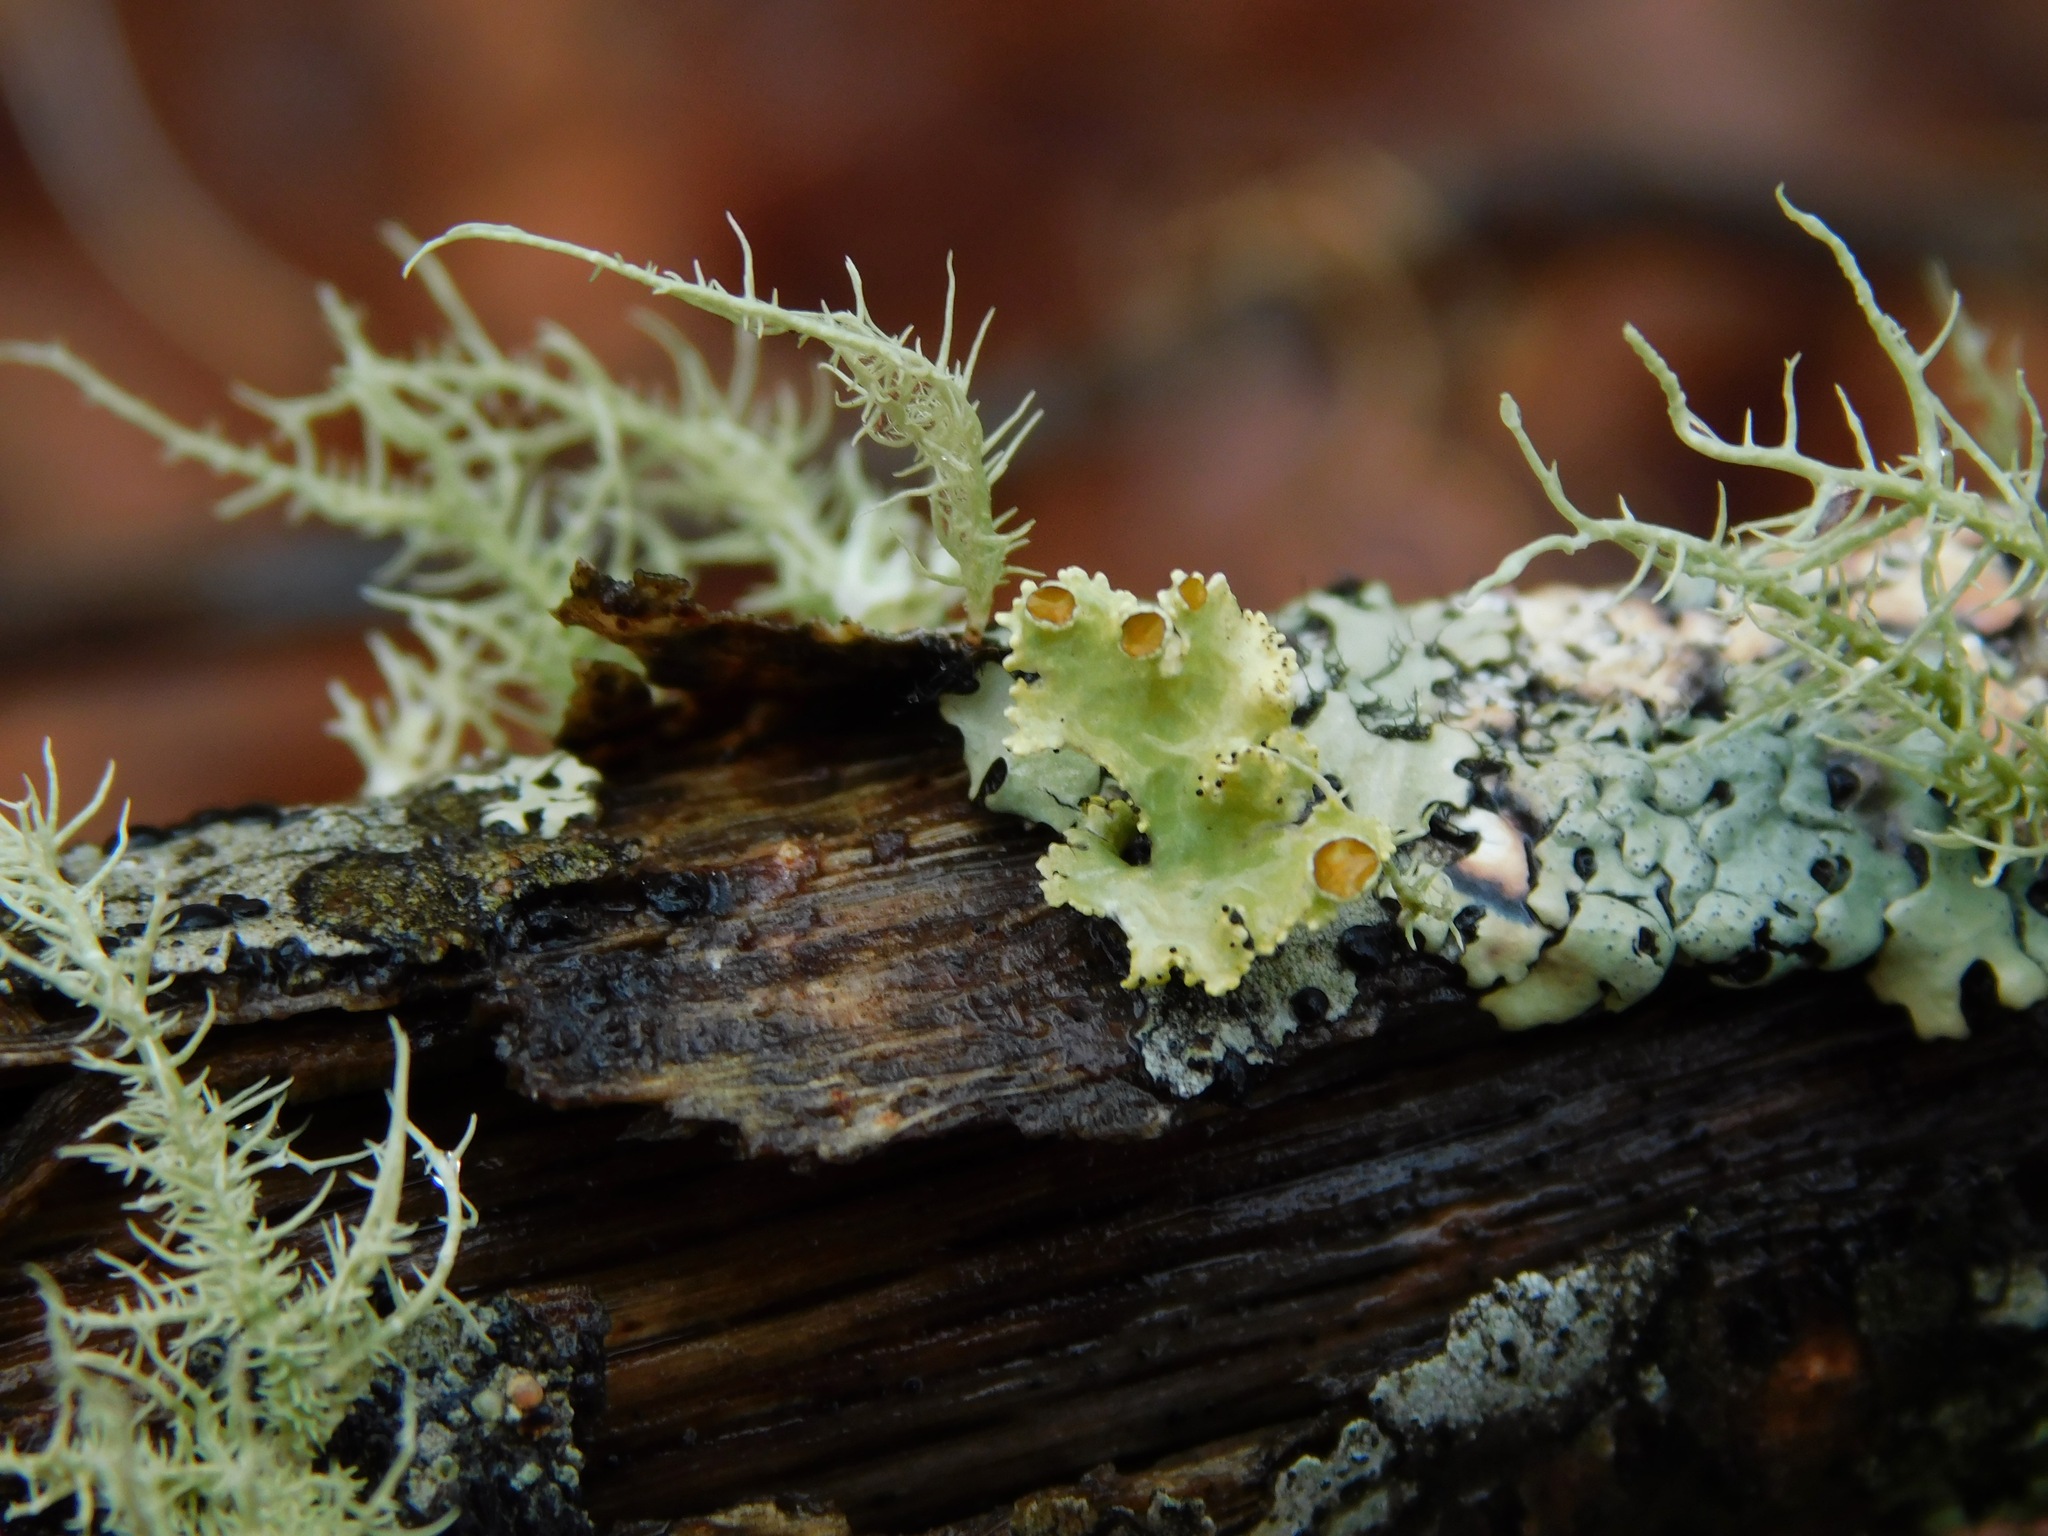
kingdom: Fungi
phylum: Ascomycota
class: Lecanoromycetes
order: Lecanorales
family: Parmeliaceae
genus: Vulpicida
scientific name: Vulpicida viridis
